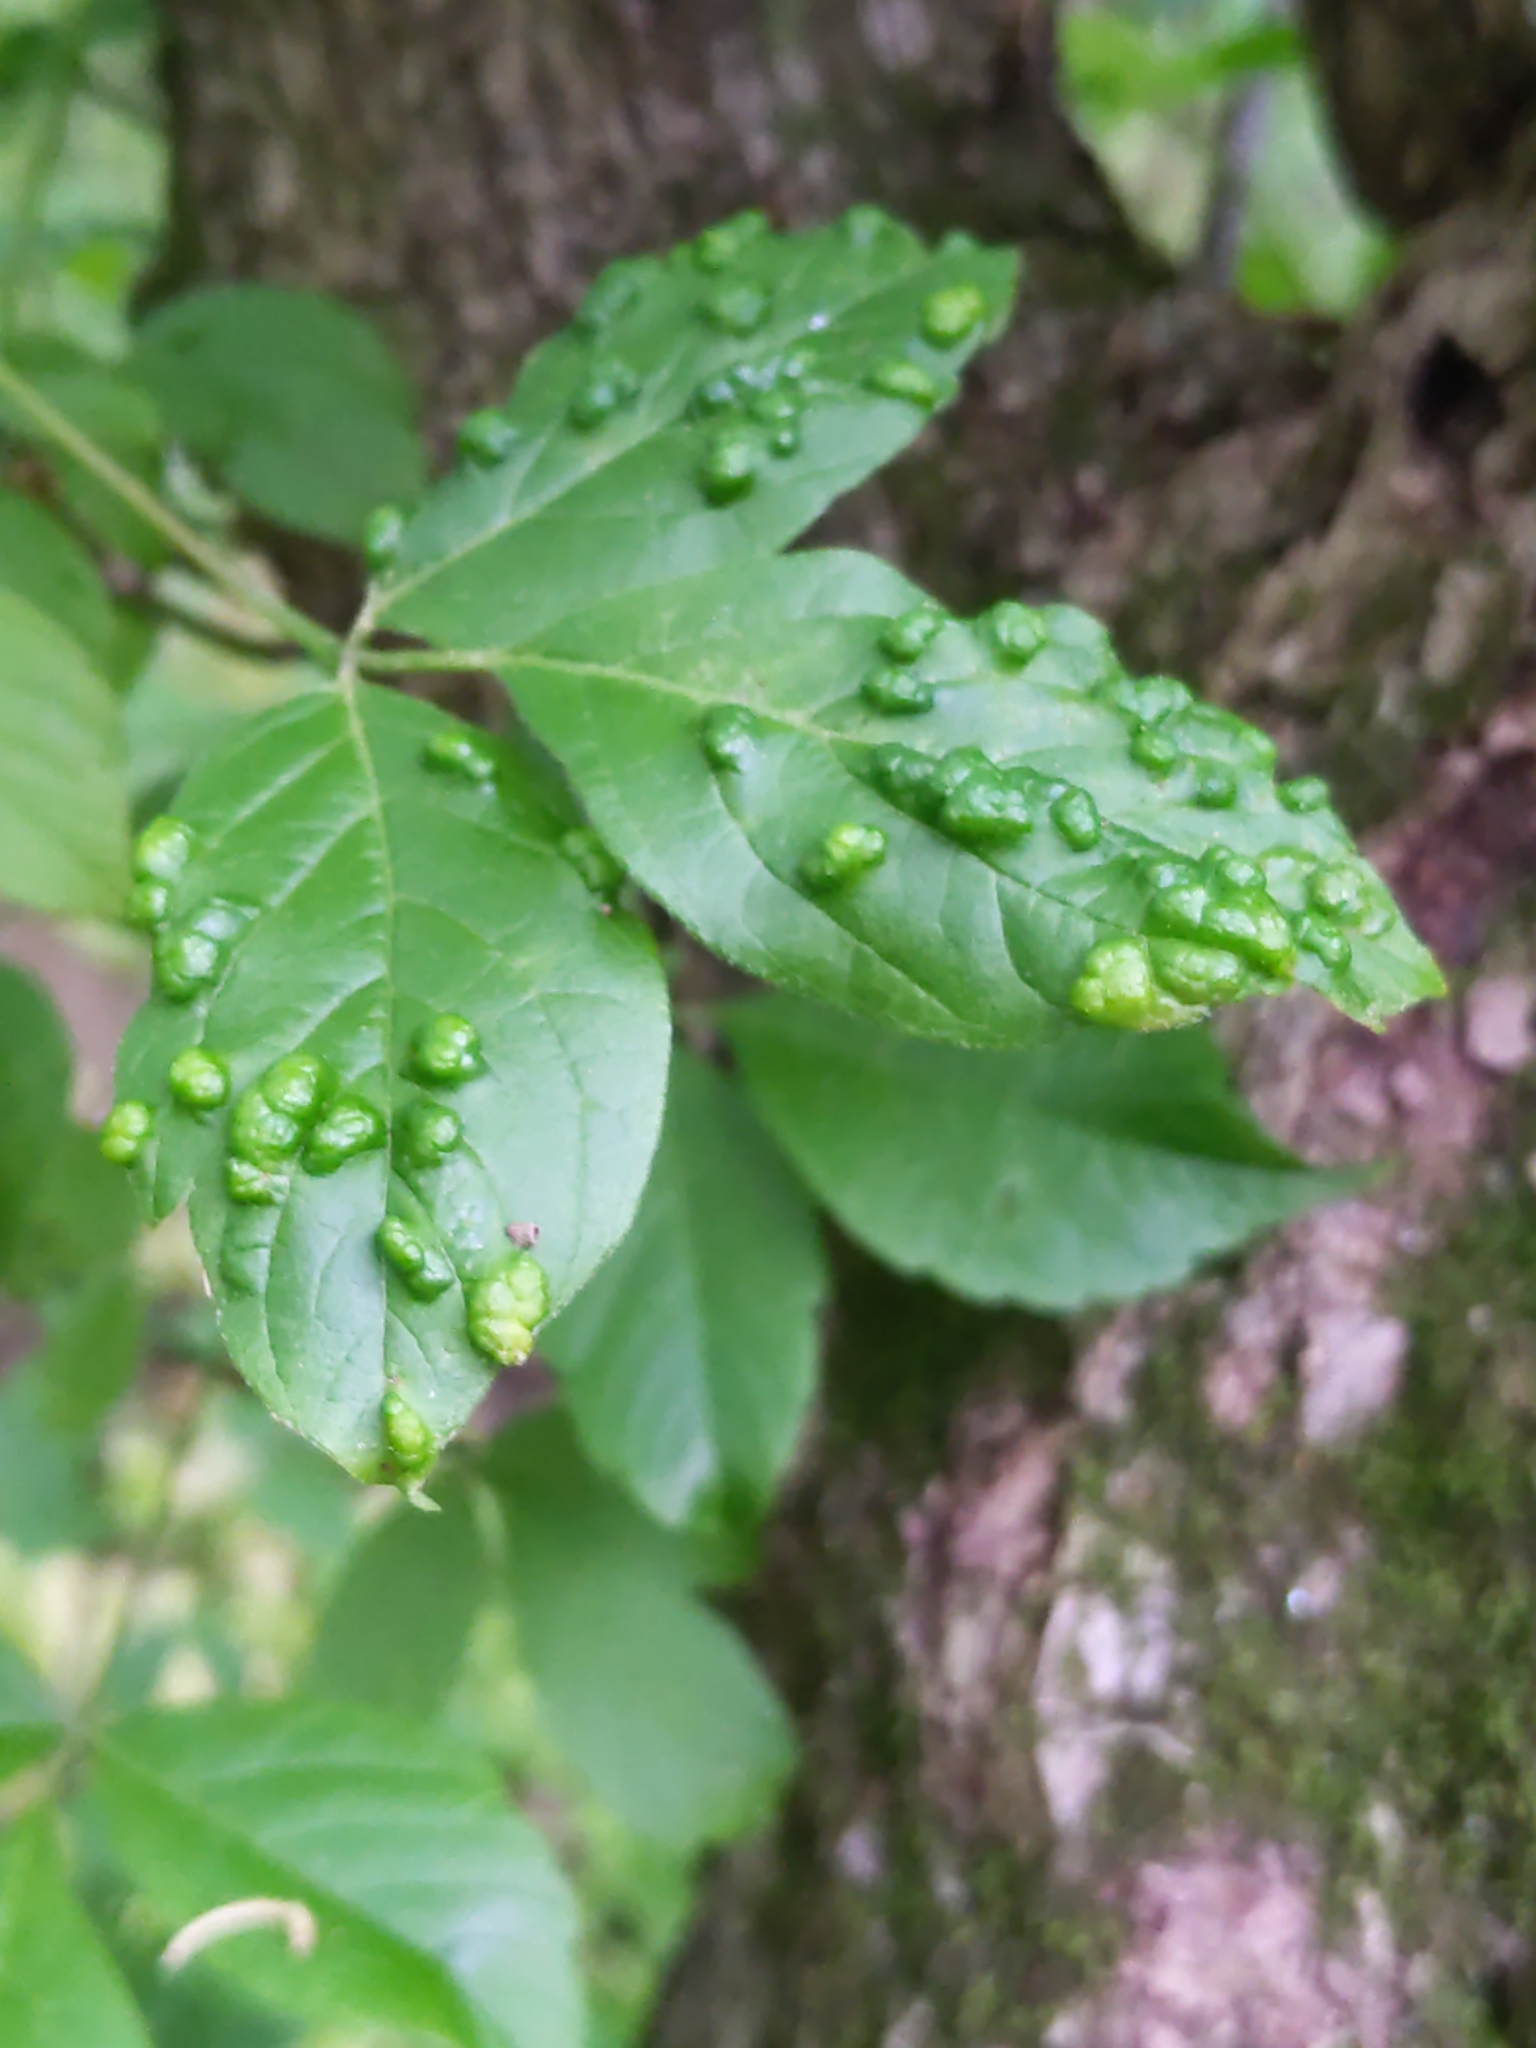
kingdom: Animalia
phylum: Arthropoda
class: Arachnida
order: Trombidiformes
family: Eriophyidae
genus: Aceria
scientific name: Aceria
